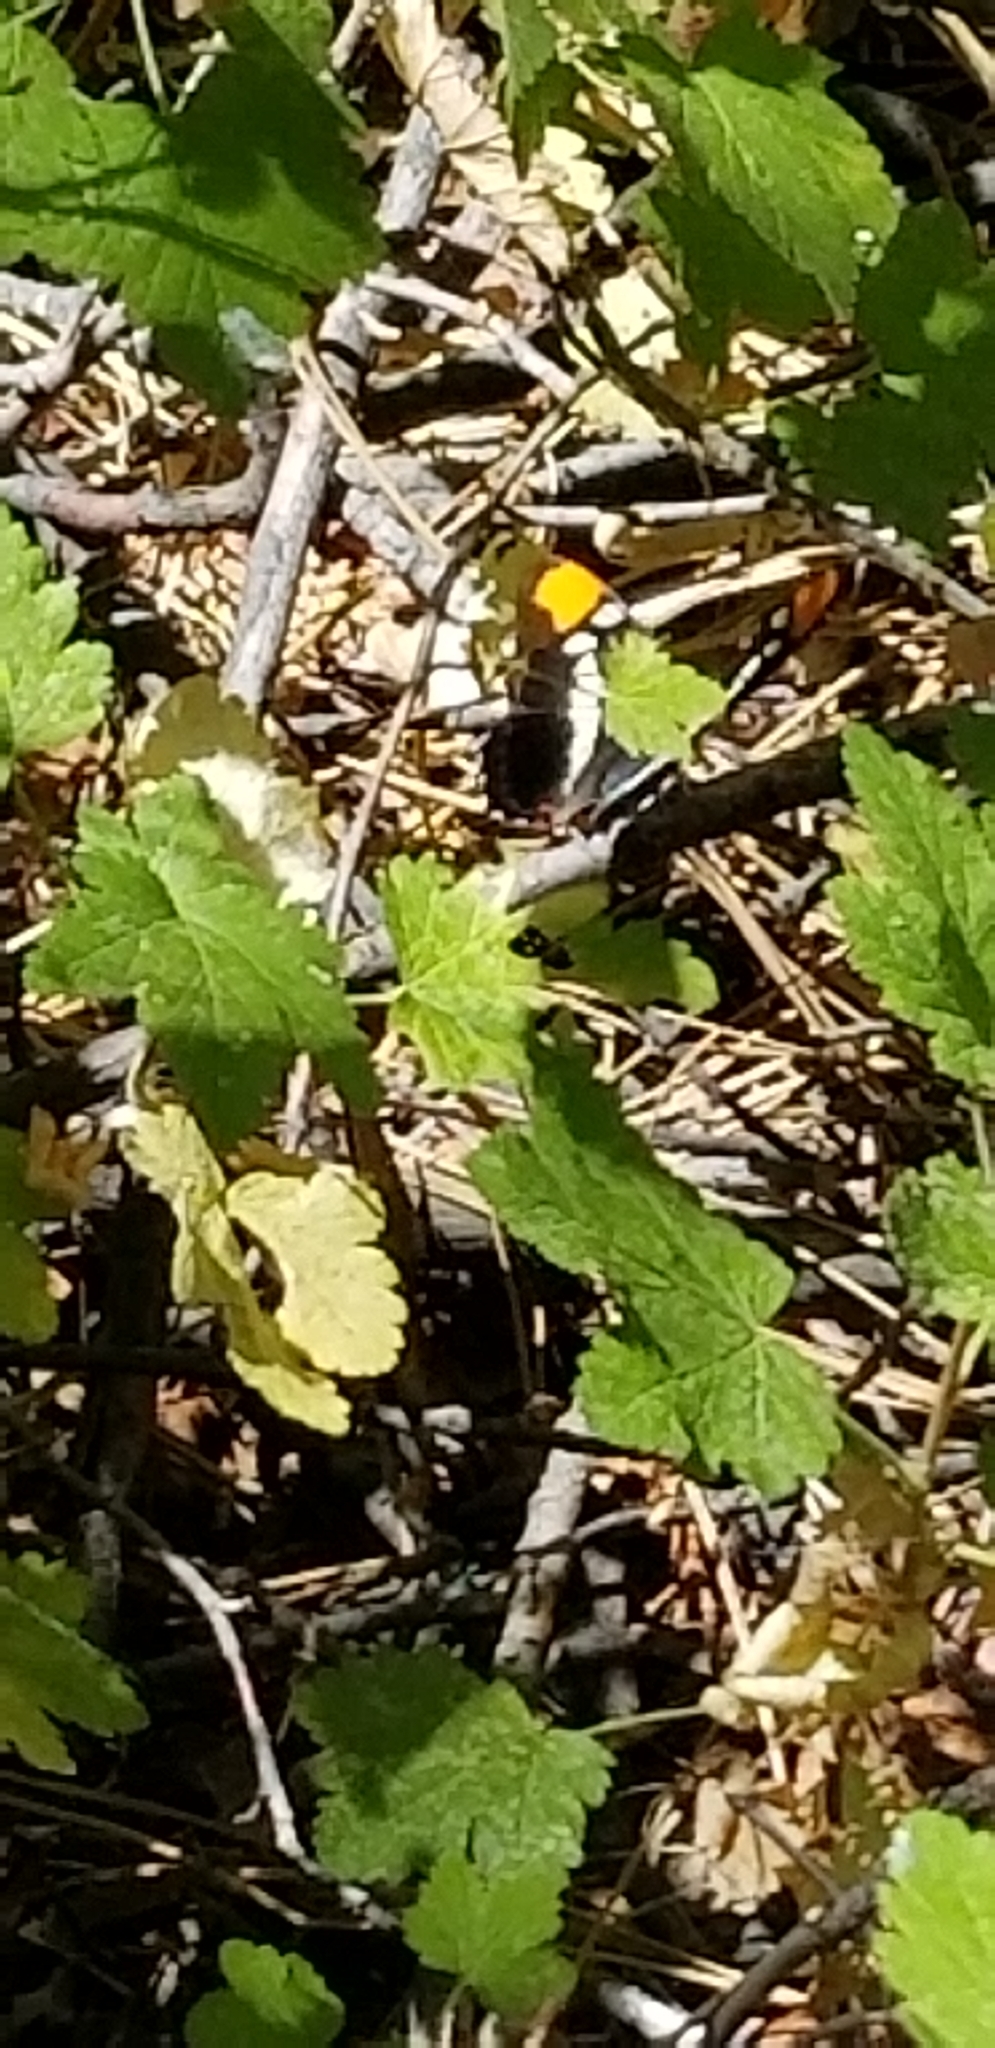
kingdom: Animalia
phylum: Arthropoda
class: Insecta
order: Lepidoptera
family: Nymphalidae
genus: Limenitis
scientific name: Limenitis bredowii
